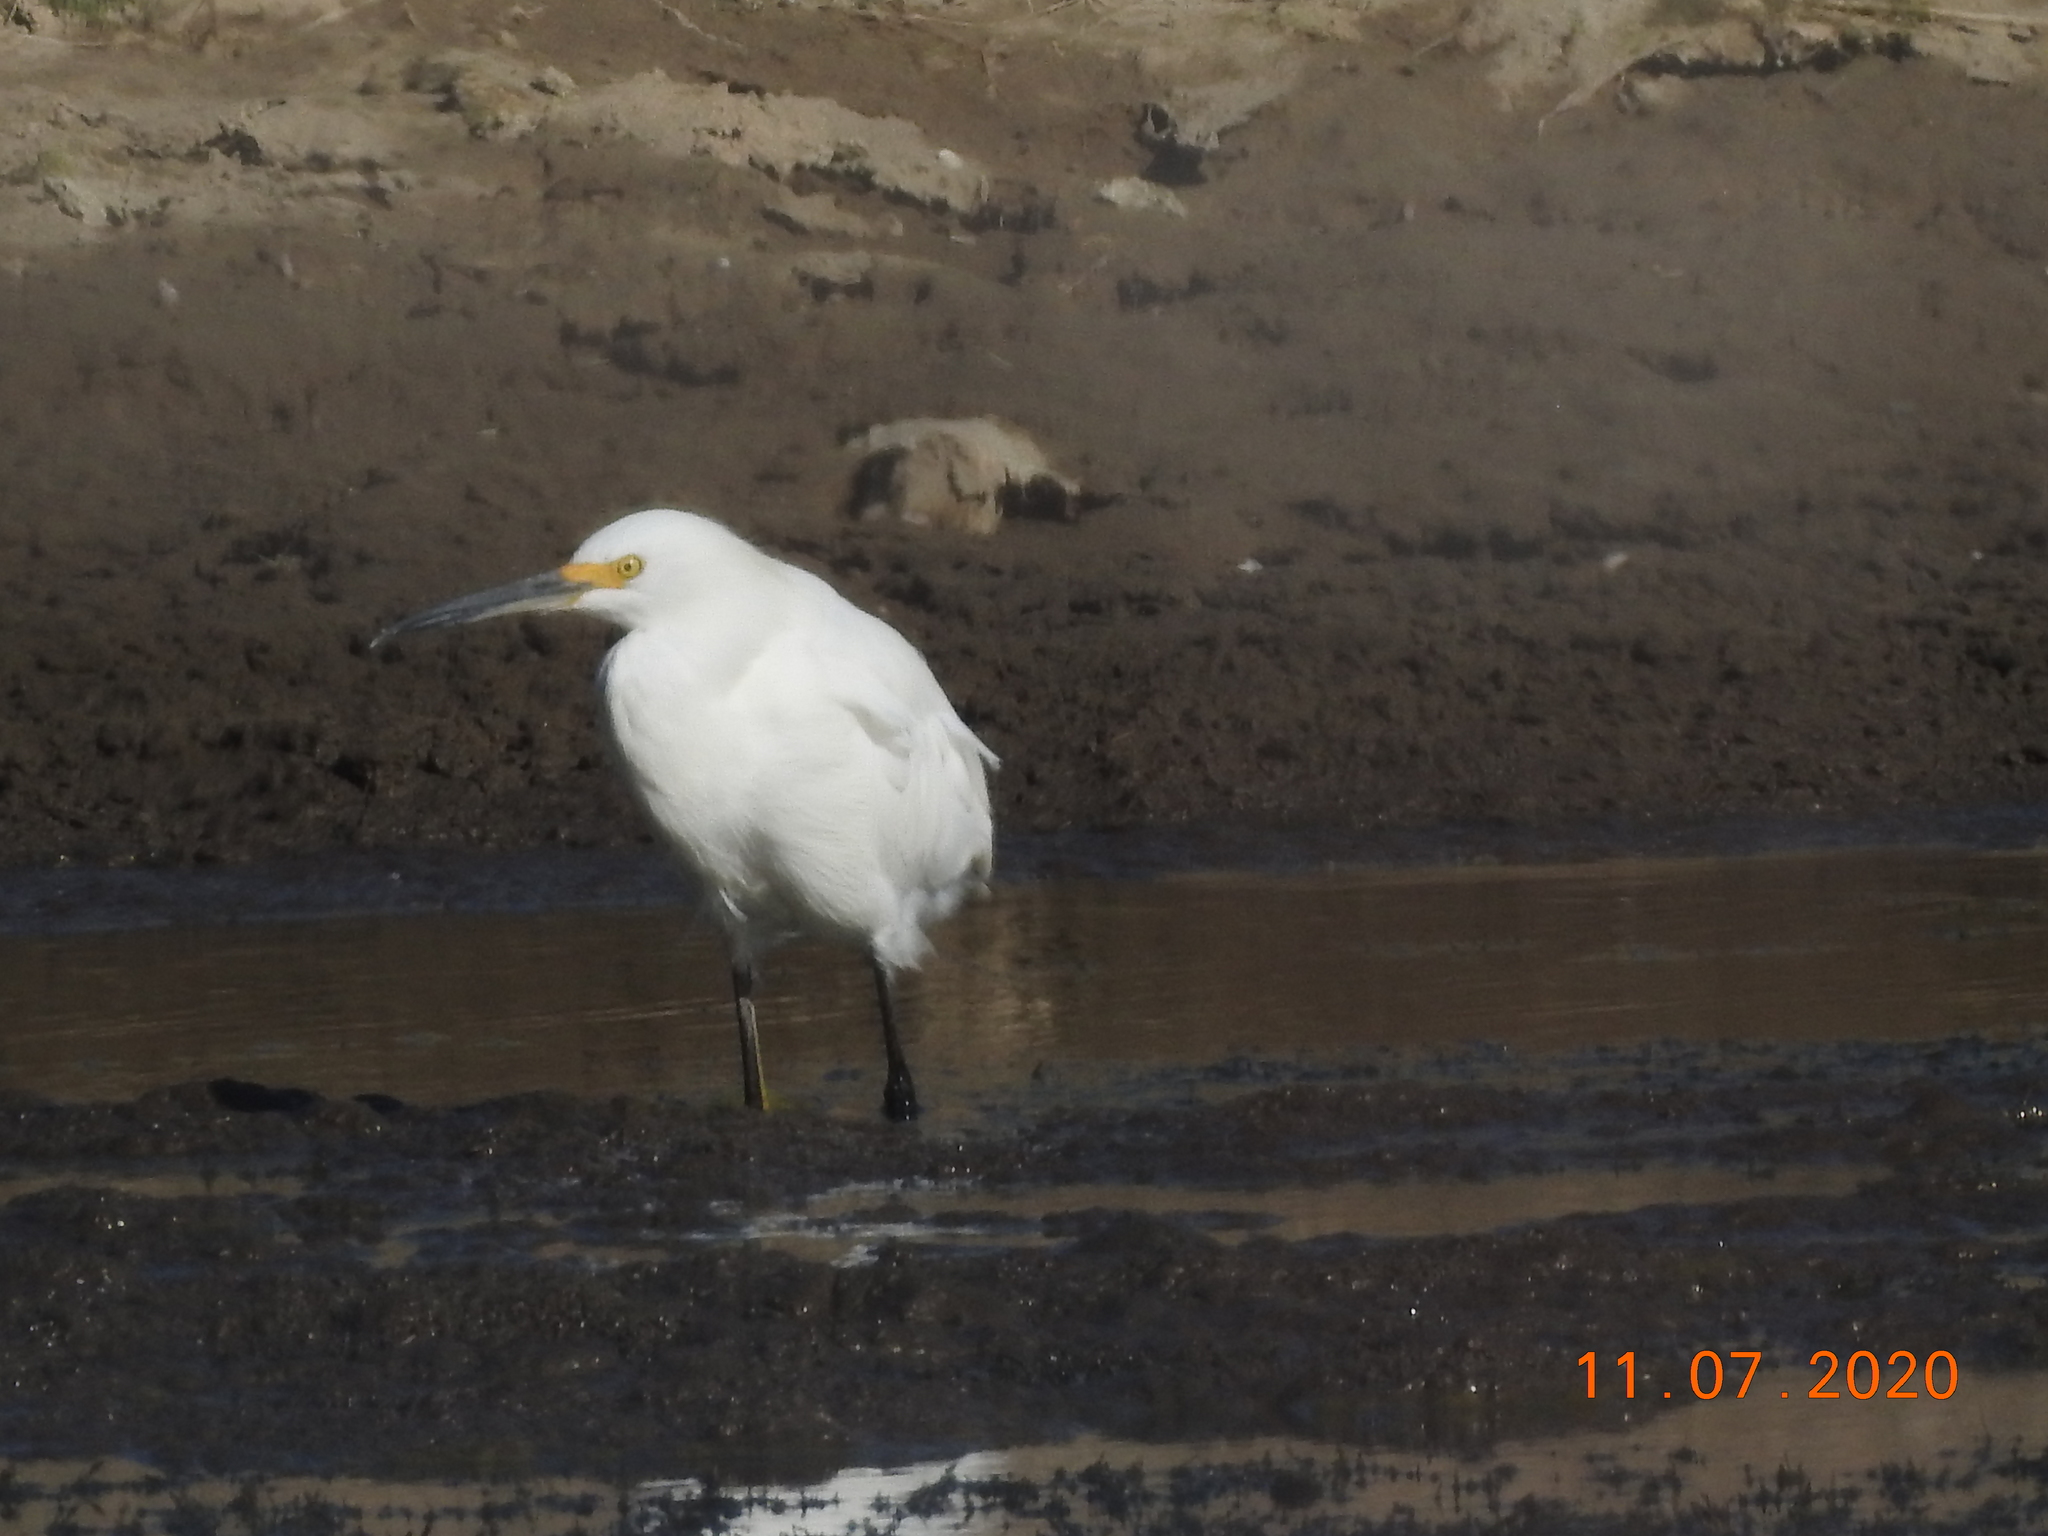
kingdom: Animalia
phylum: Chordata
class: Aves
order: Pelecaniformes
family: Ardeidae
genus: Egretta
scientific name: Egretta thula
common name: Snowy egret
